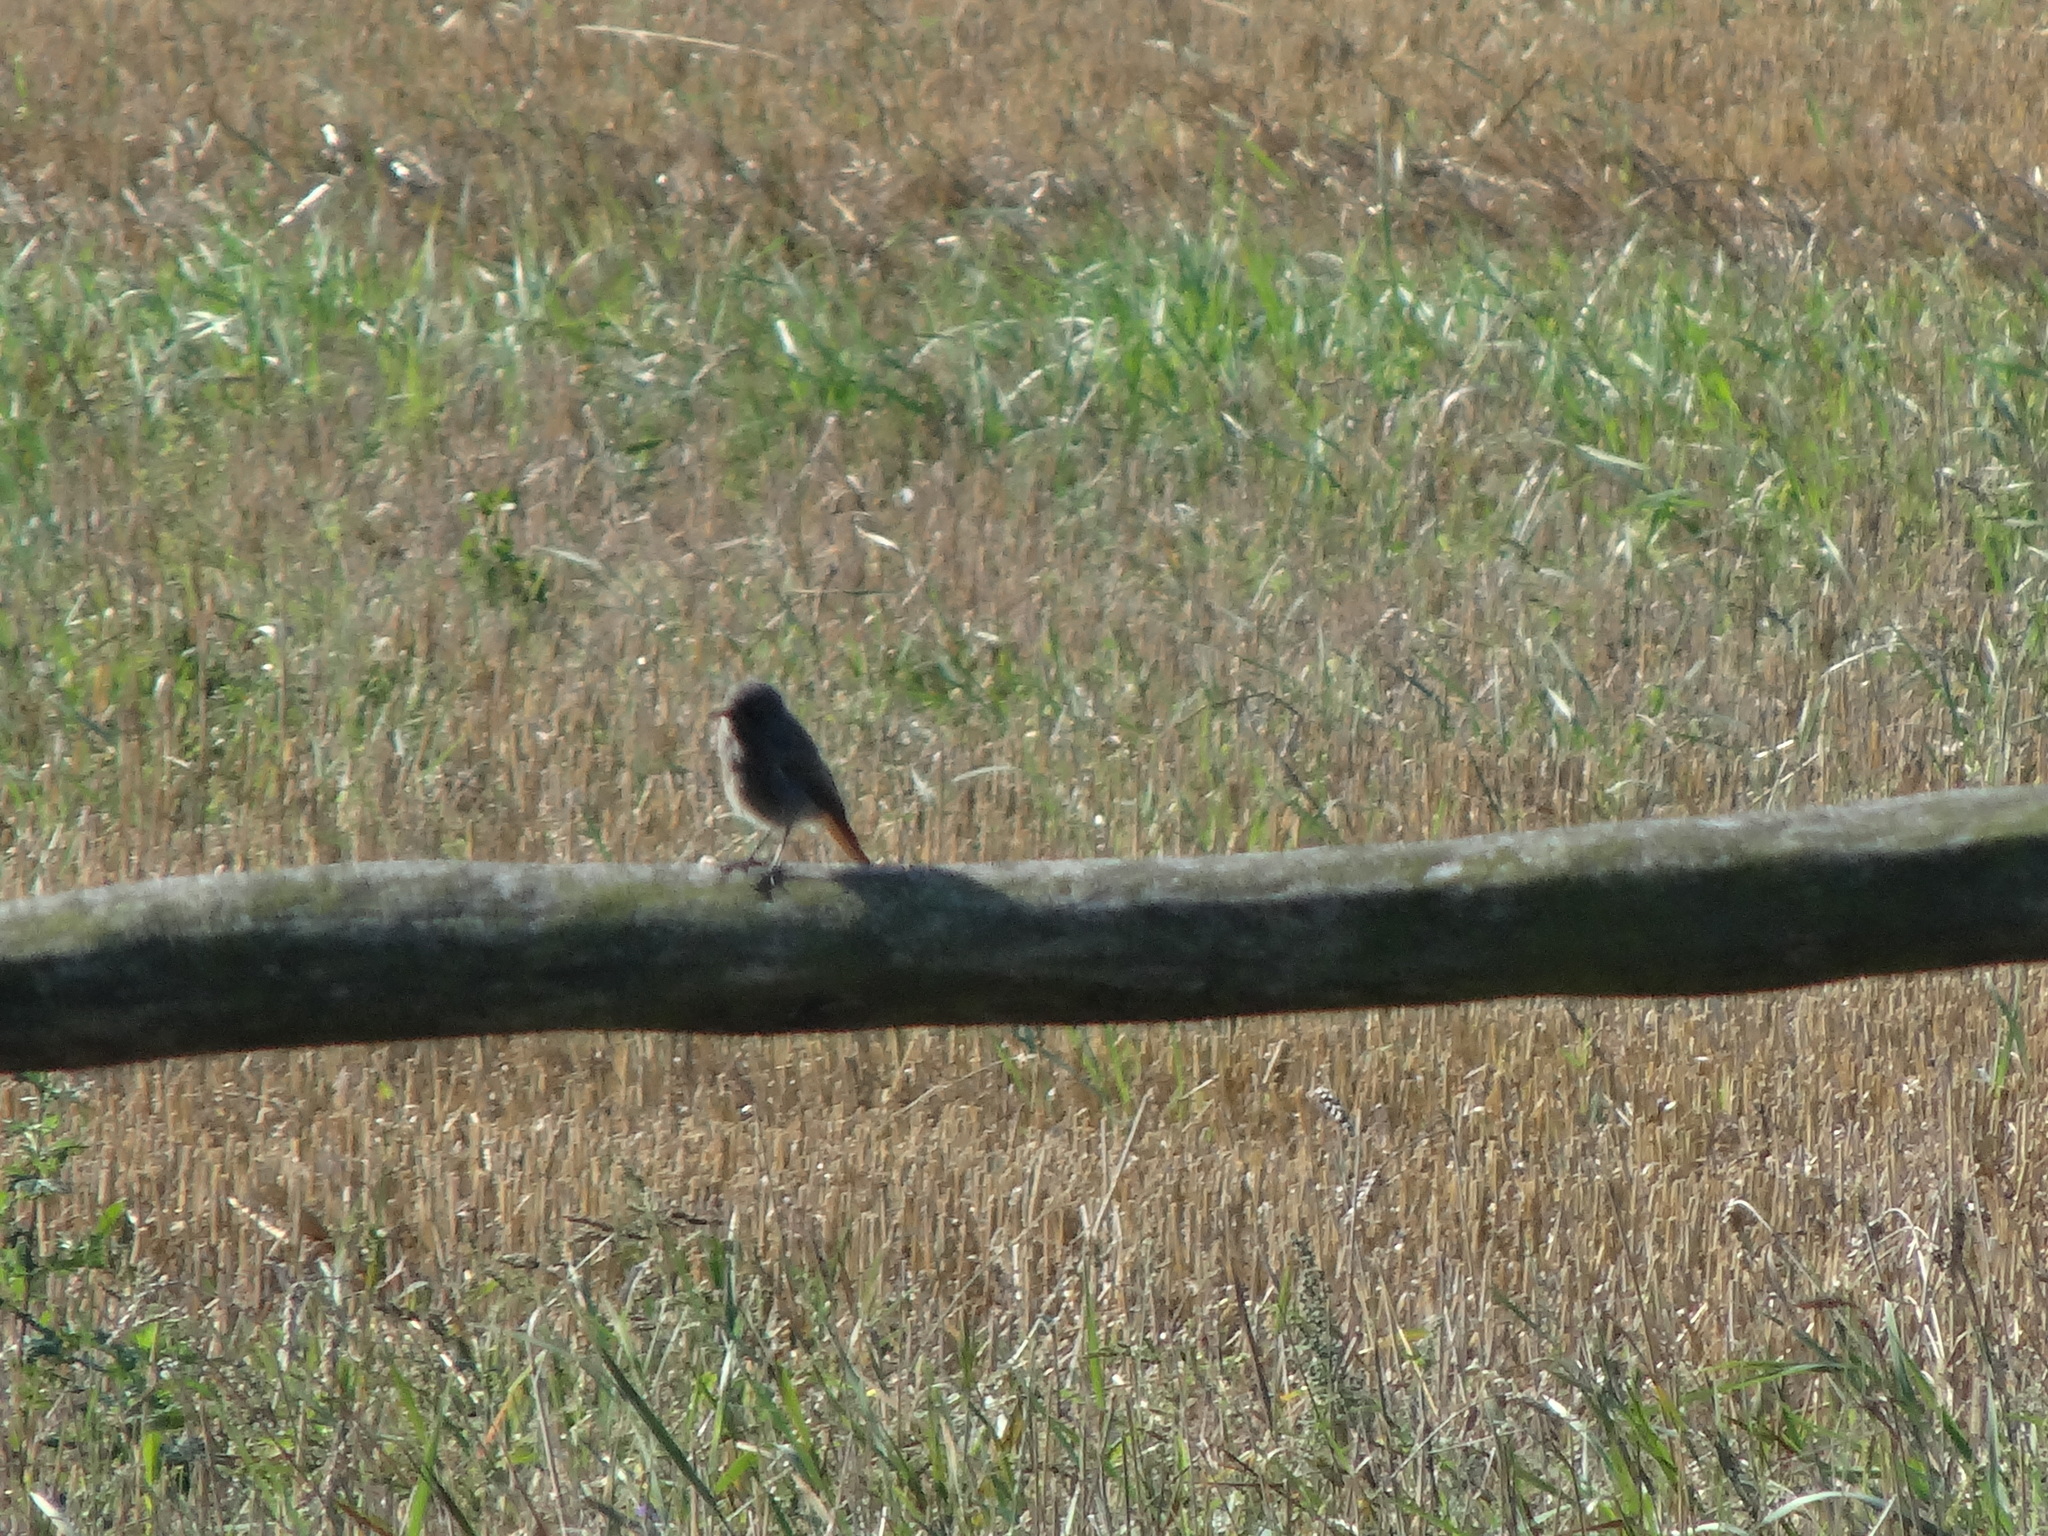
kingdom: Animalia
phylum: Chordata
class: Aves
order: Passeriformes
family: Muscicapidae
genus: Phoenicurus
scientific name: Phoenicurus ochruros
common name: Black redstart
